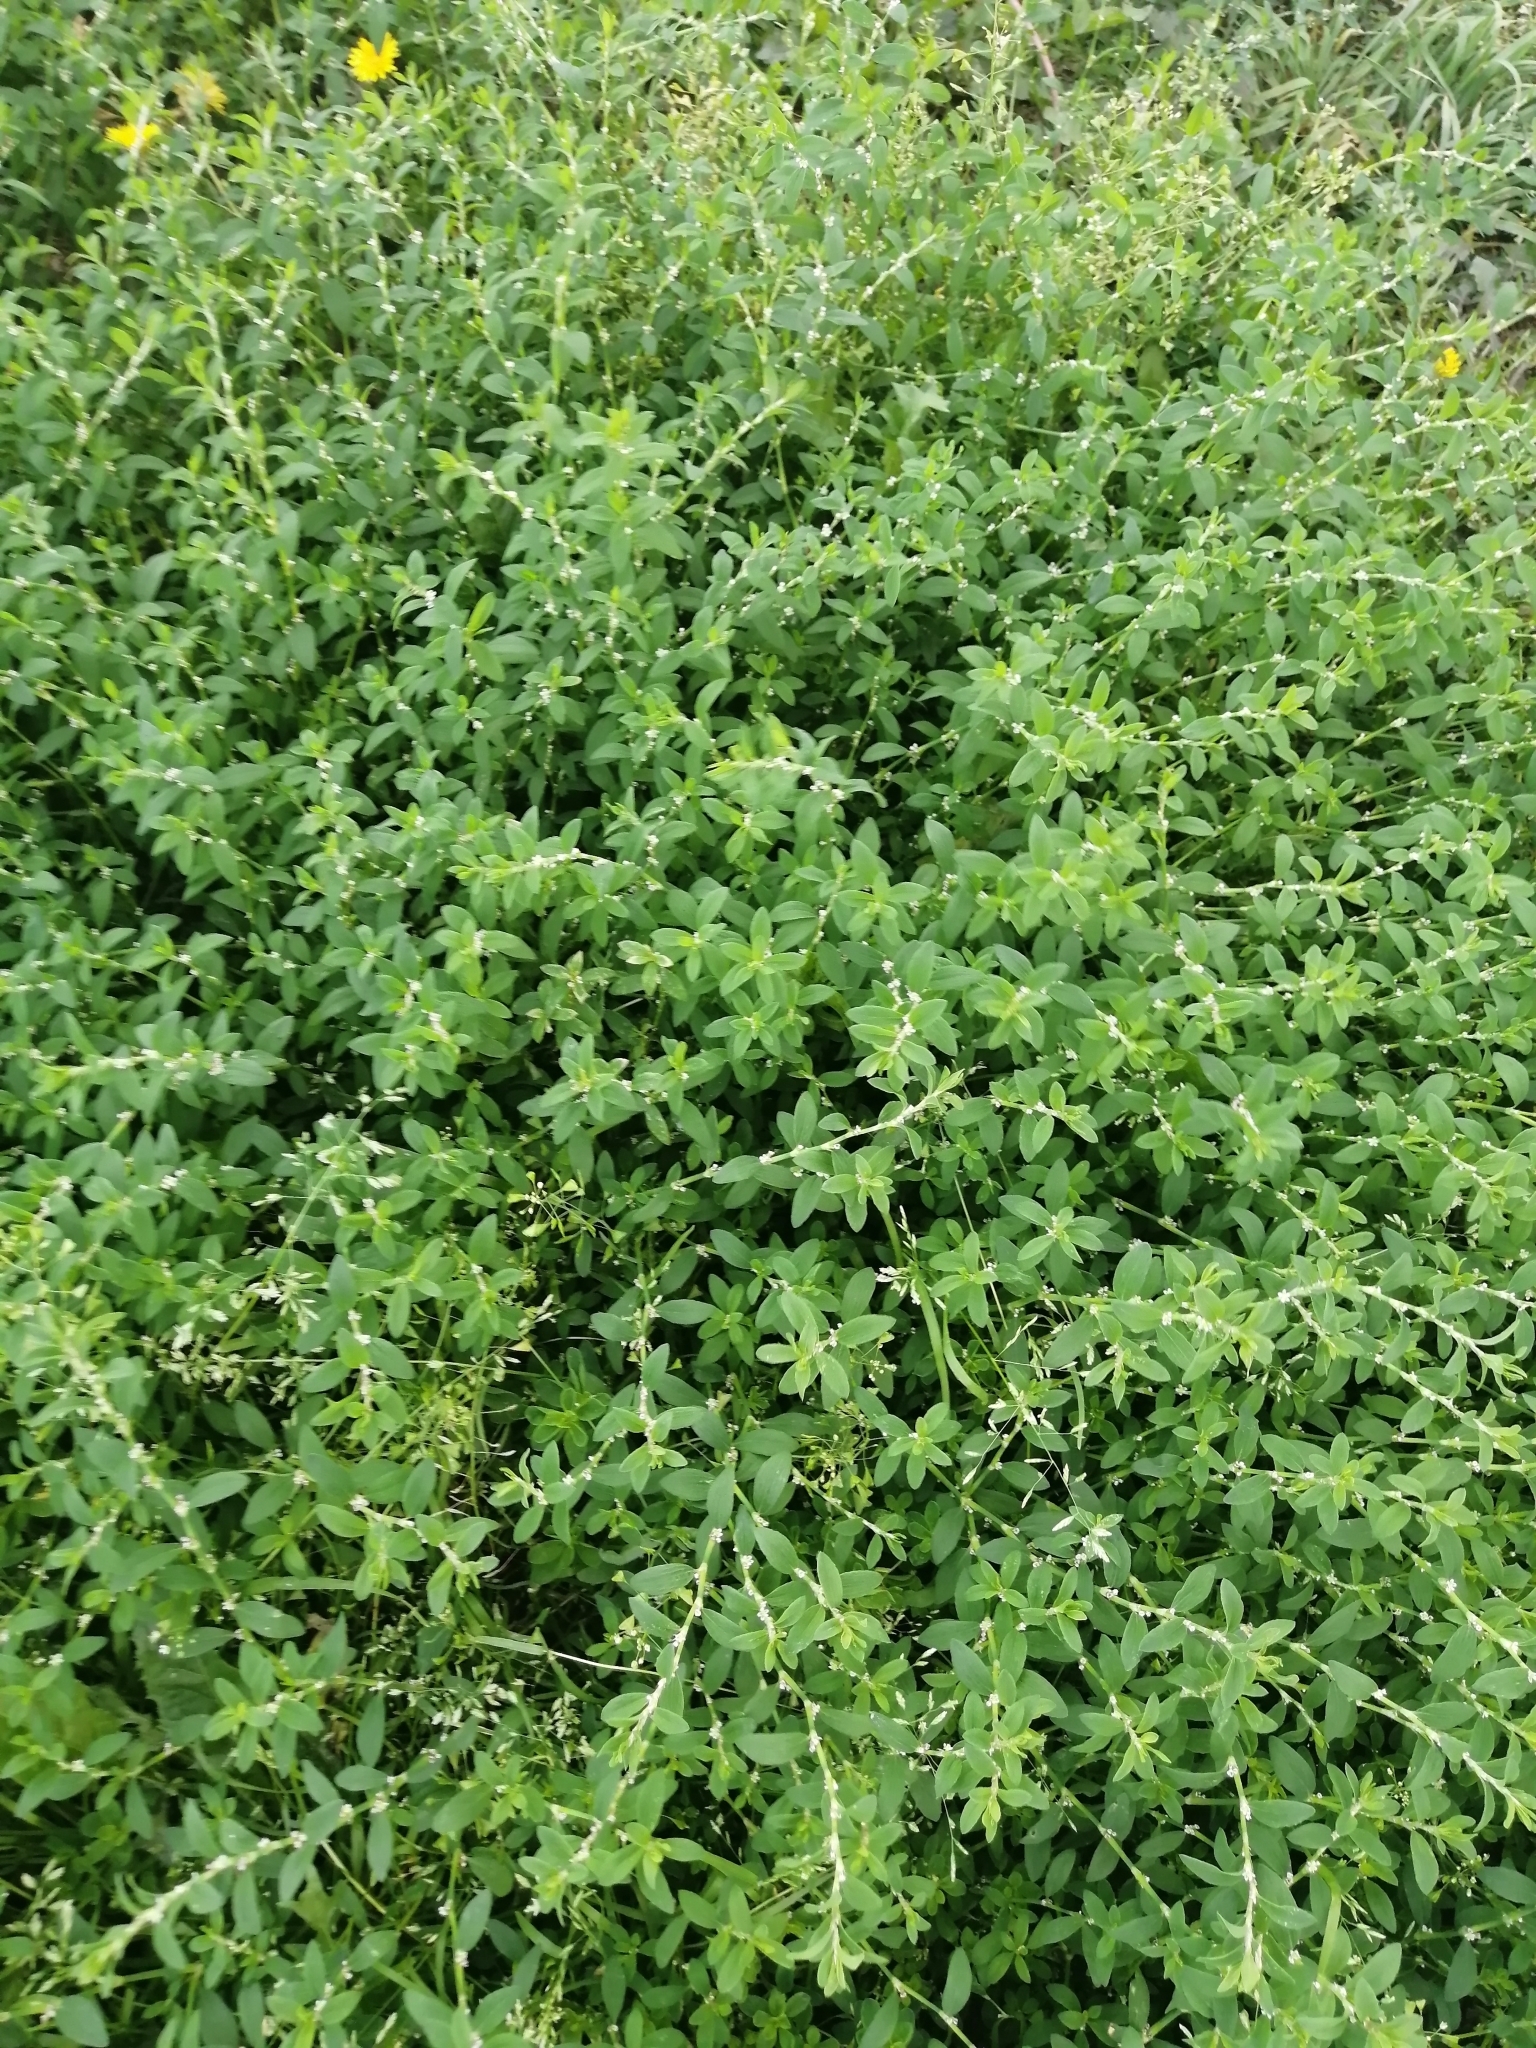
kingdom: Plantae
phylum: Tracheophyta
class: Magnoliopsida
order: Caryophyllales
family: Polygonaceae
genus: Polygonum
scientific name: Polygonum aviculare
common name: Prostrate knotweed
